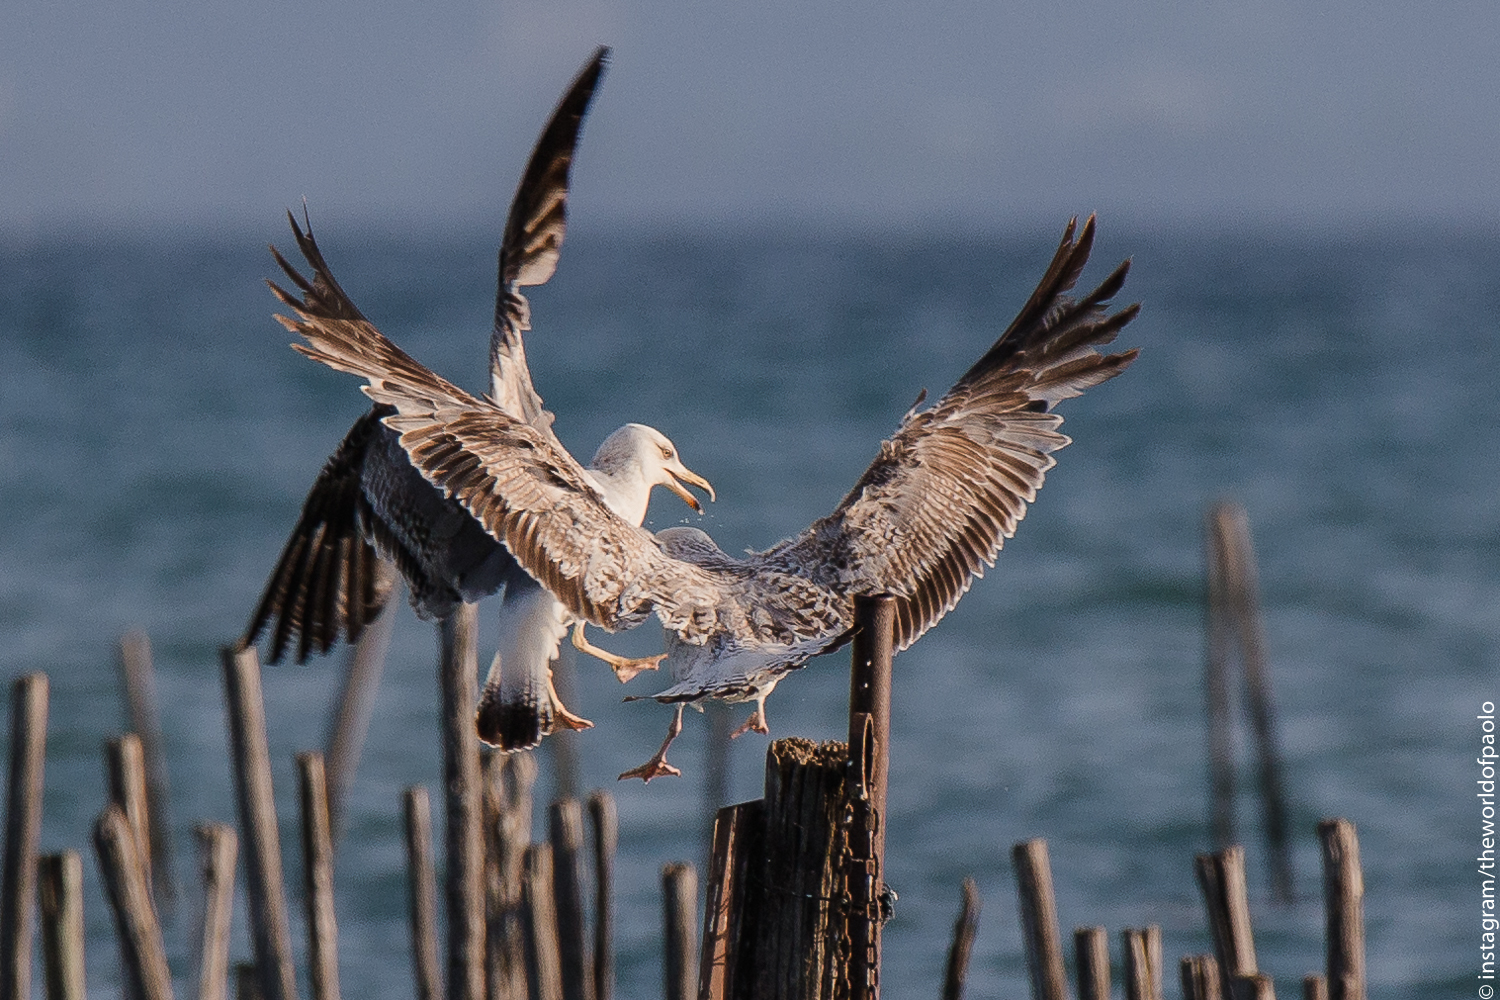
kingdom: Animalia
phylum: Chordata
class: Aves
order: Charadriiformes
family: Laridae
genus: Larus
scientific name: Larus michahellis
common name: Yellow-legged gull
